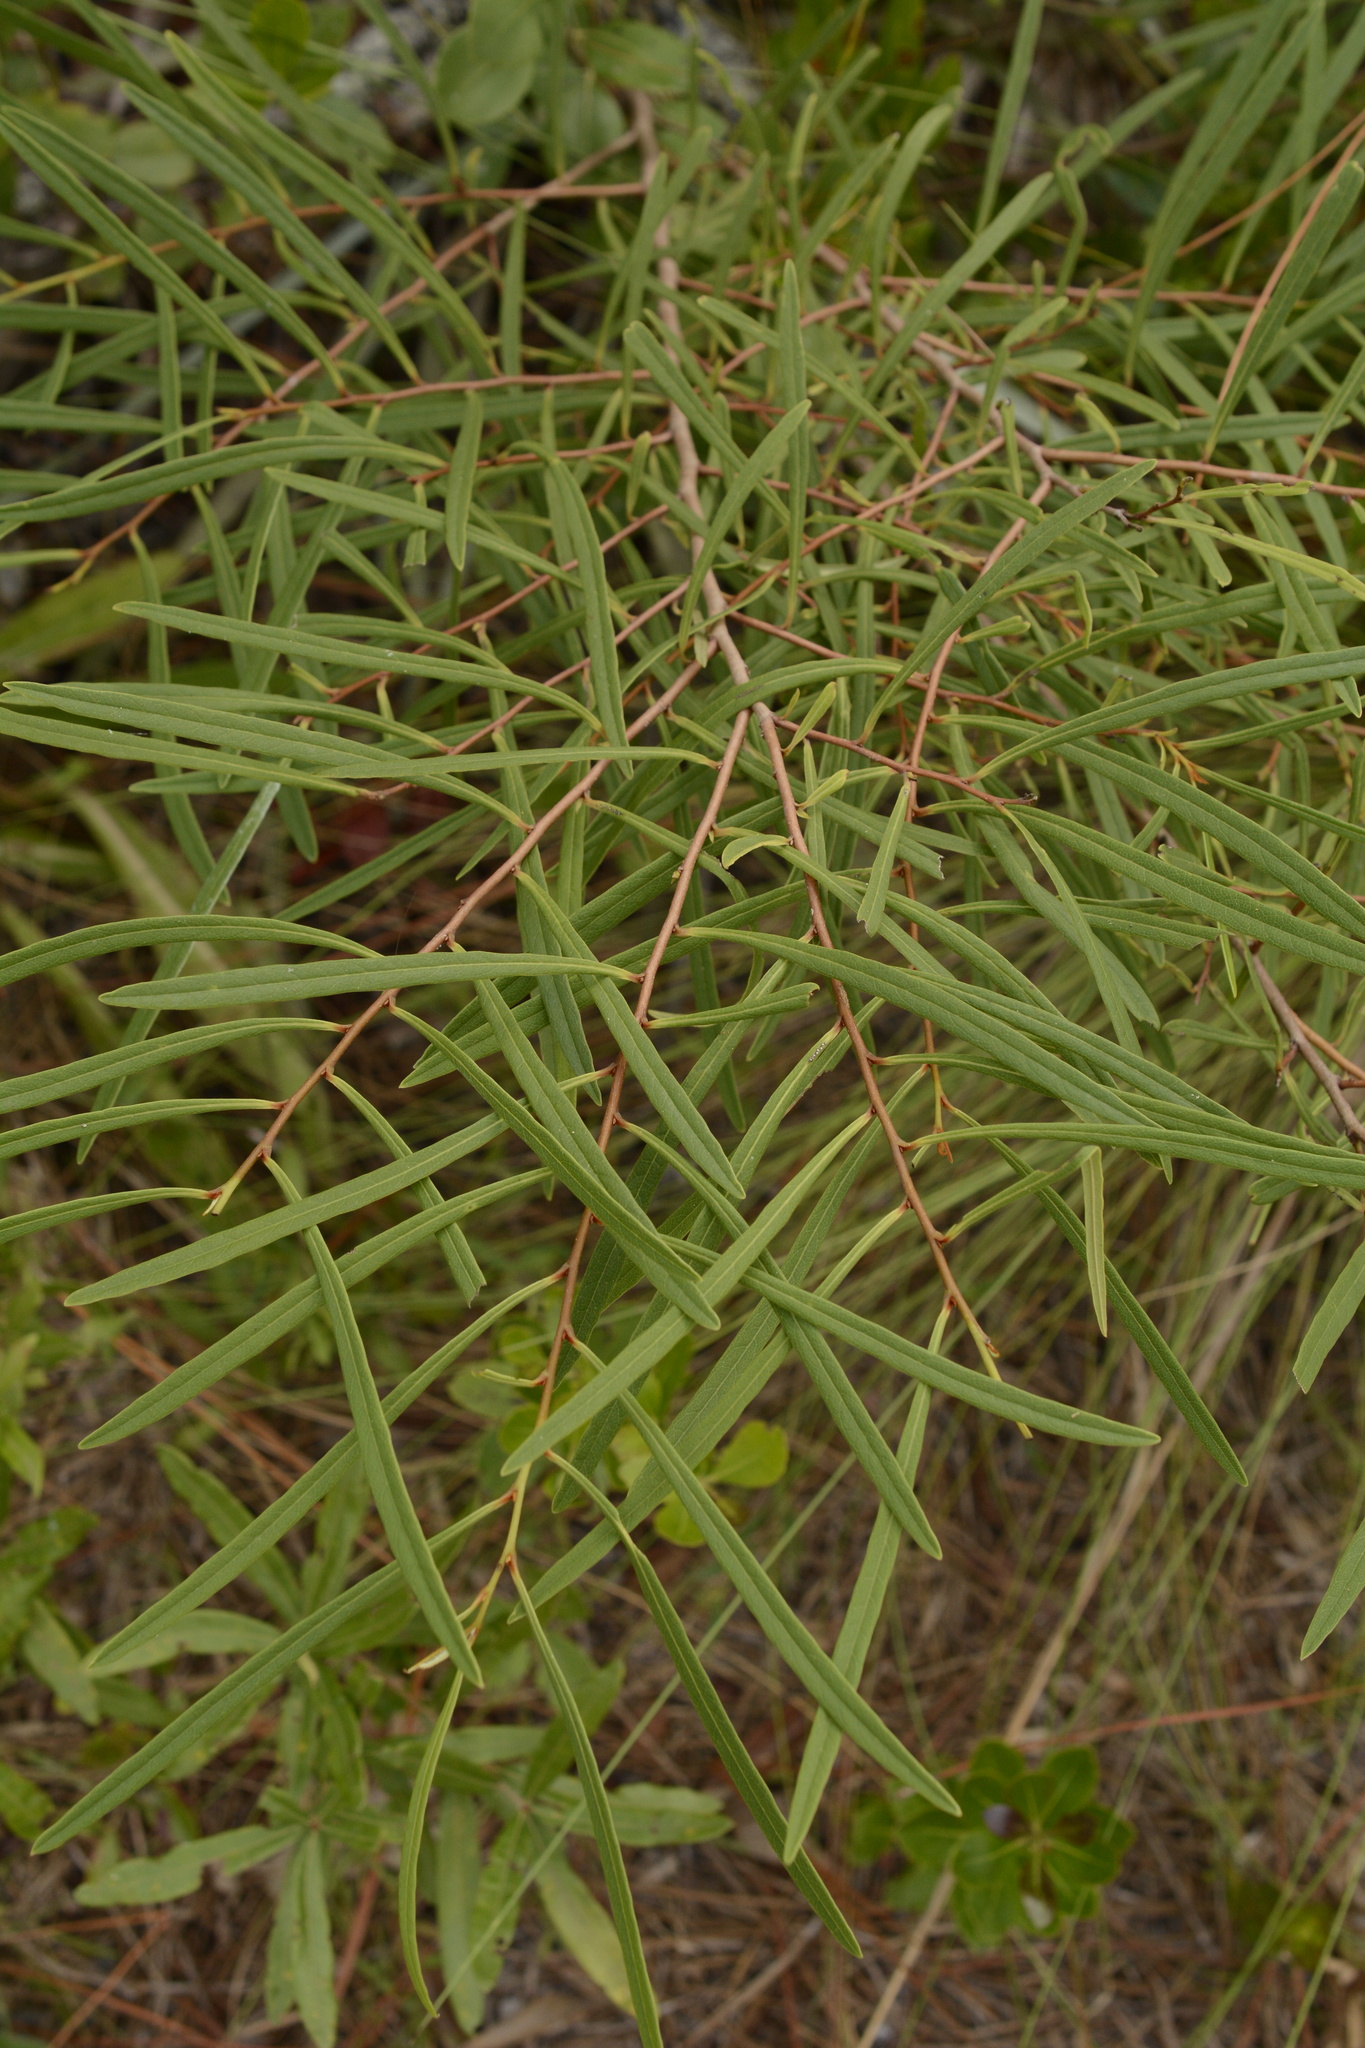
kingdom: Plantae
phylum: Tracheophyta
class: Magnoliopsida
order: Magnoliales
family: Annonaceae
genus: Asimina
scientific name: Asimina longifolia
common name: Polecatbush
